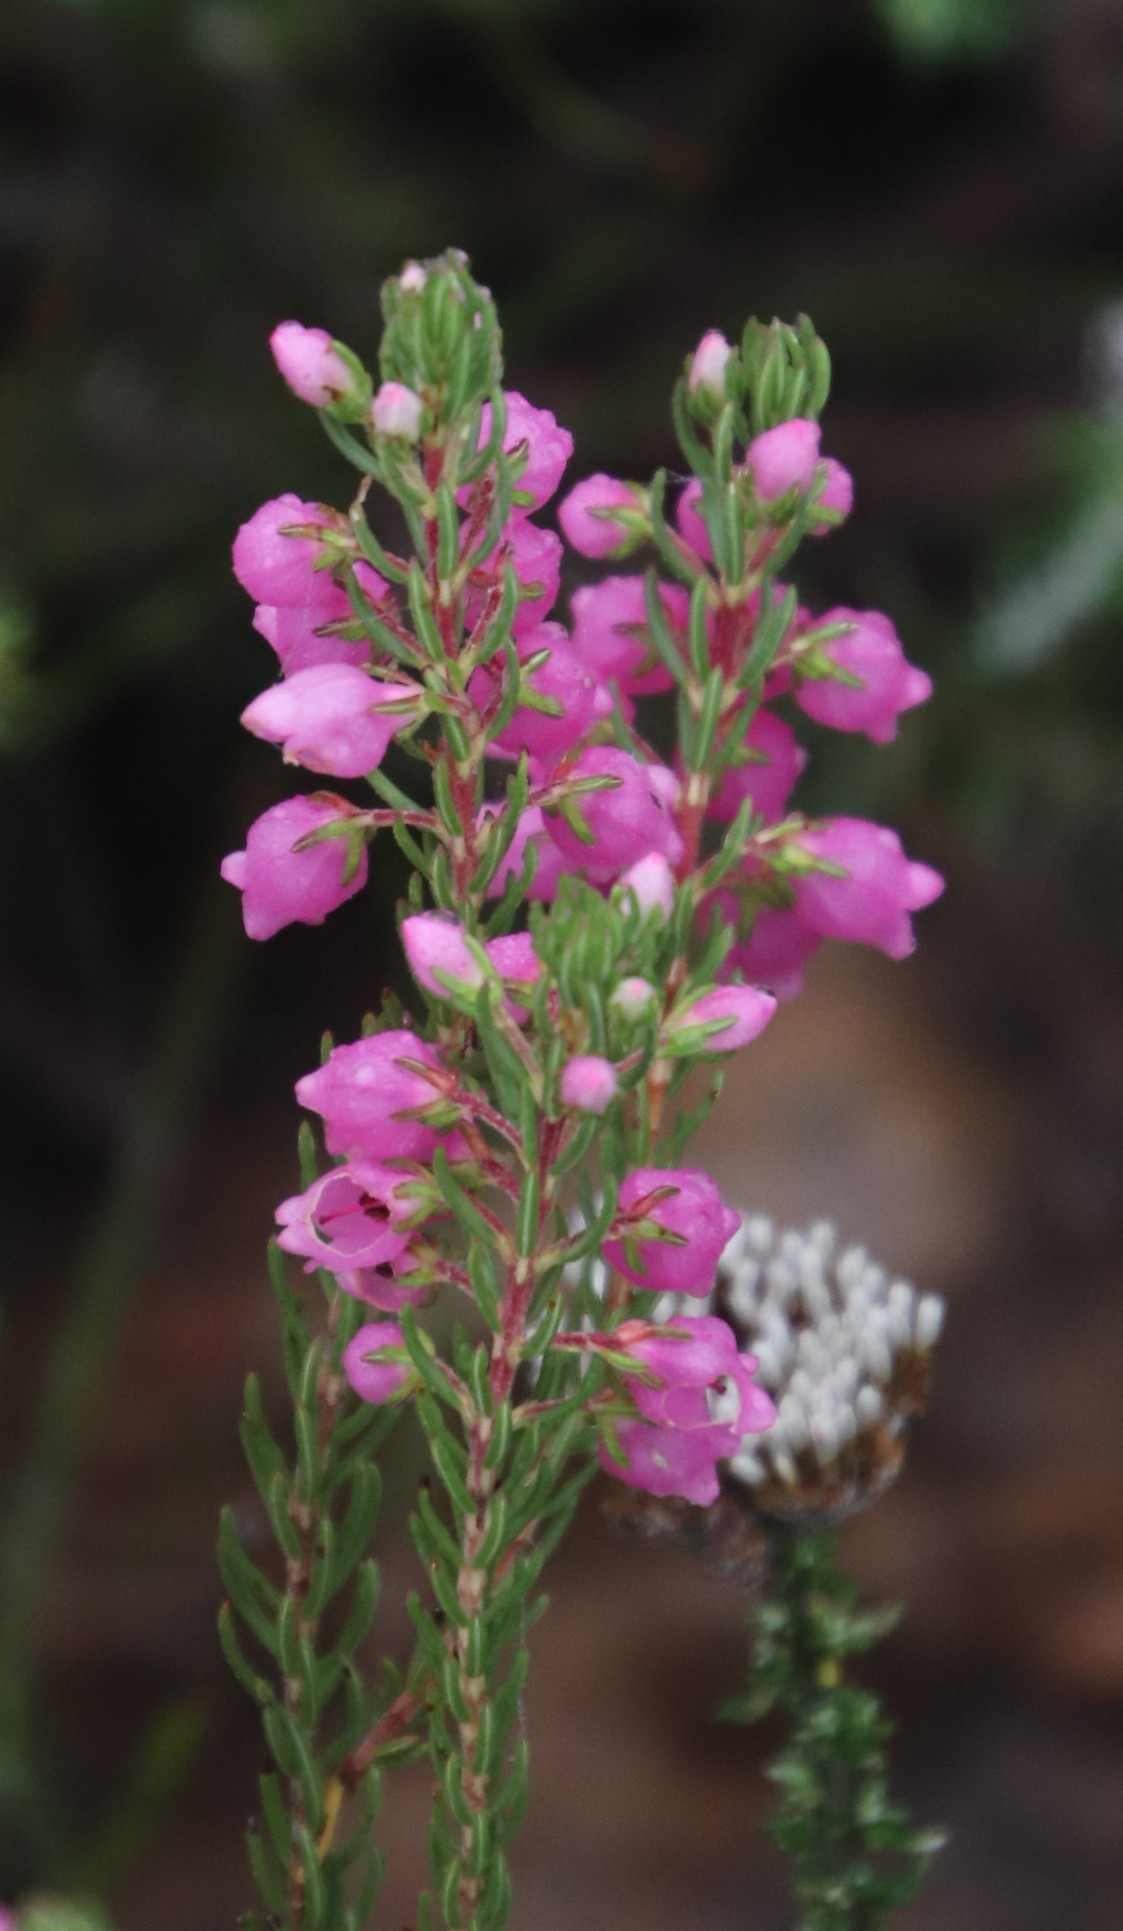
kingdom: Plantae
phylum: Tracheophyta
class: Magnoliopsida
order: Ericales
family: Ericaceae
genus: Erica
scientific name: Erica viscaria
